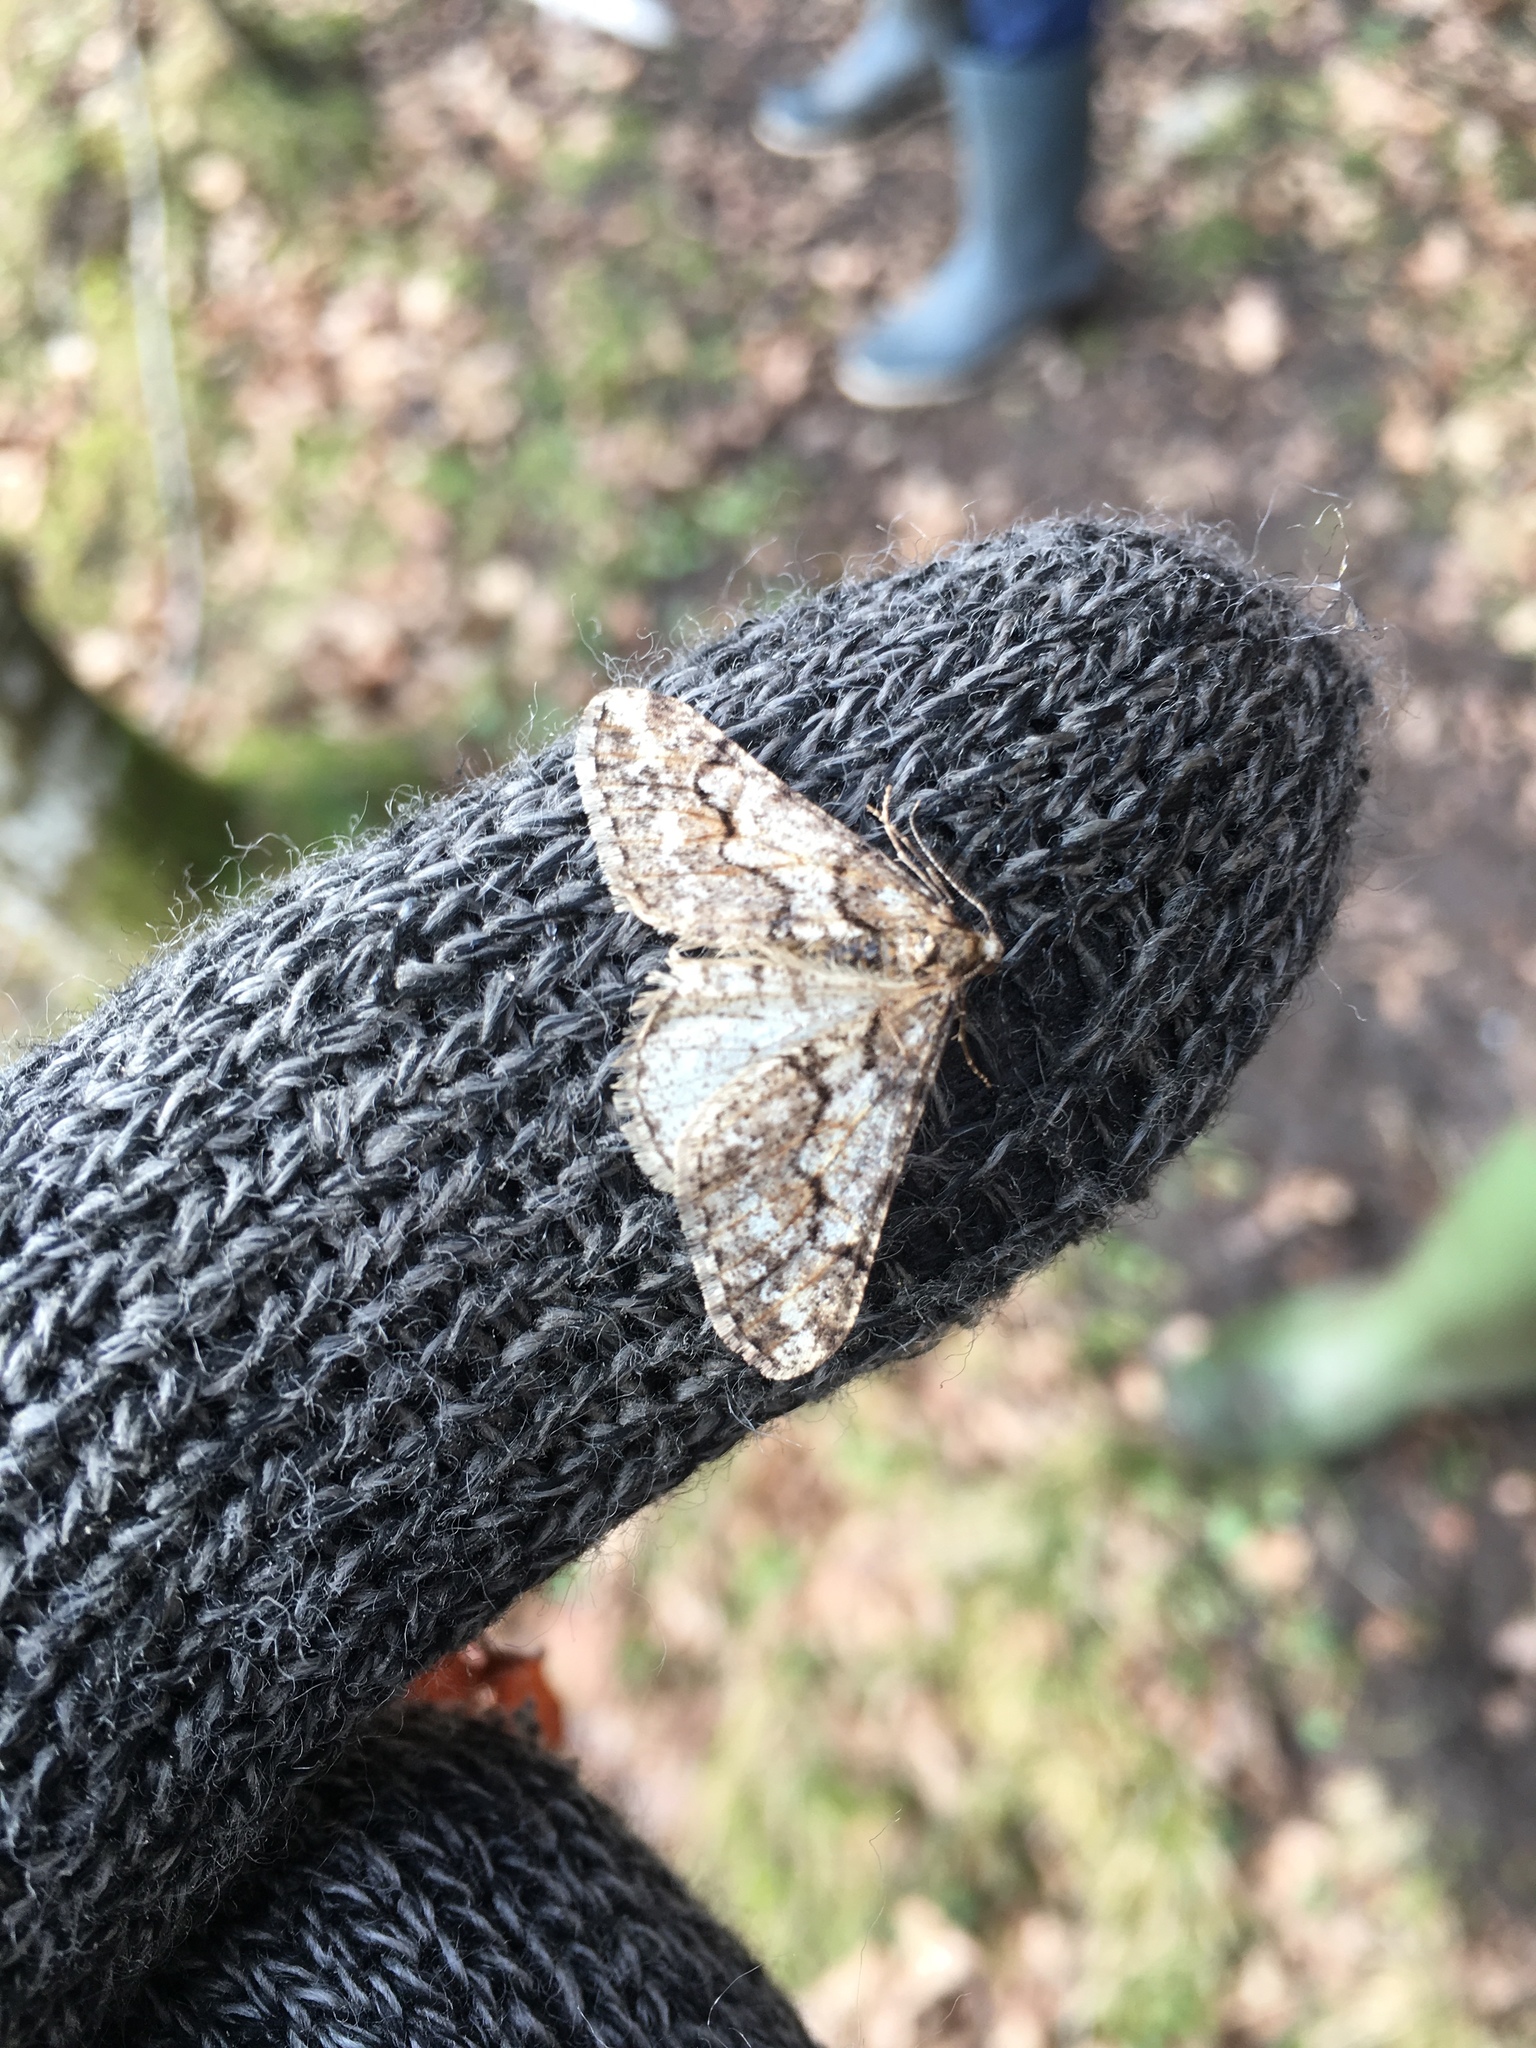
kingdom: Animalia
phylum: Arthropoda
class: Insecta
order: Lepidoptera
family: Geometridae
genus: Agriopis
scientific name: Agriopis leucophaearia
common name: Spring usher
